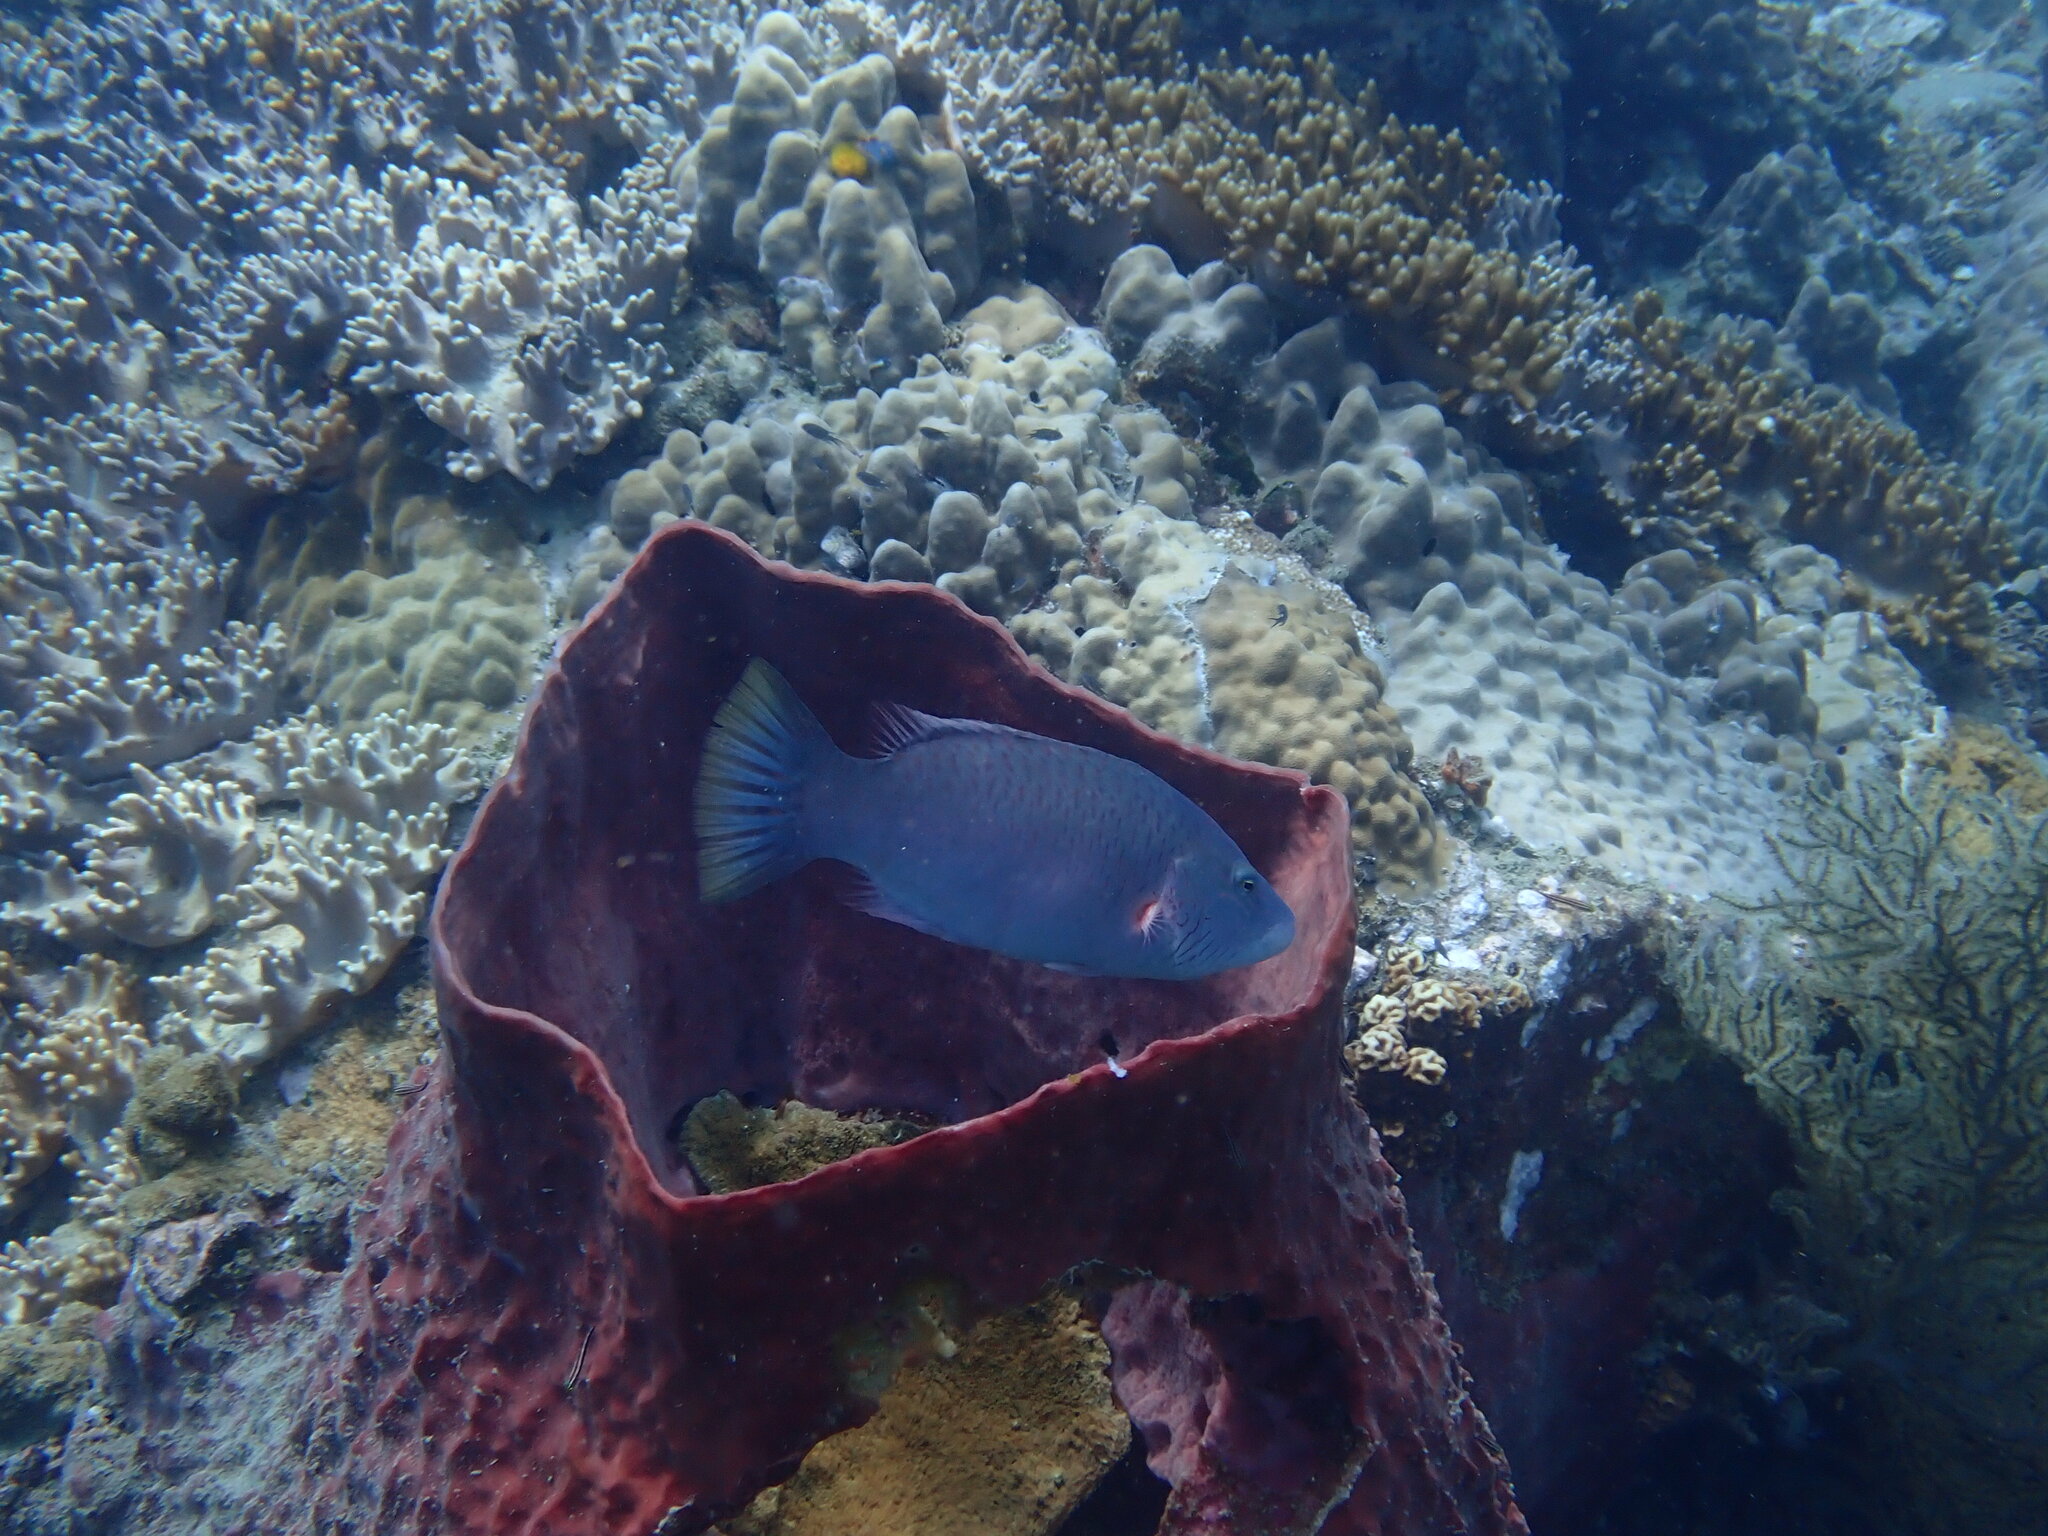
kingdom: Animalia
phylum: Chordata
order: Perciformes
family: Labridae
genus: Oxycheilinus
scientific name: Oxycheilinus digramma
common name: Bandcheek wrasse
